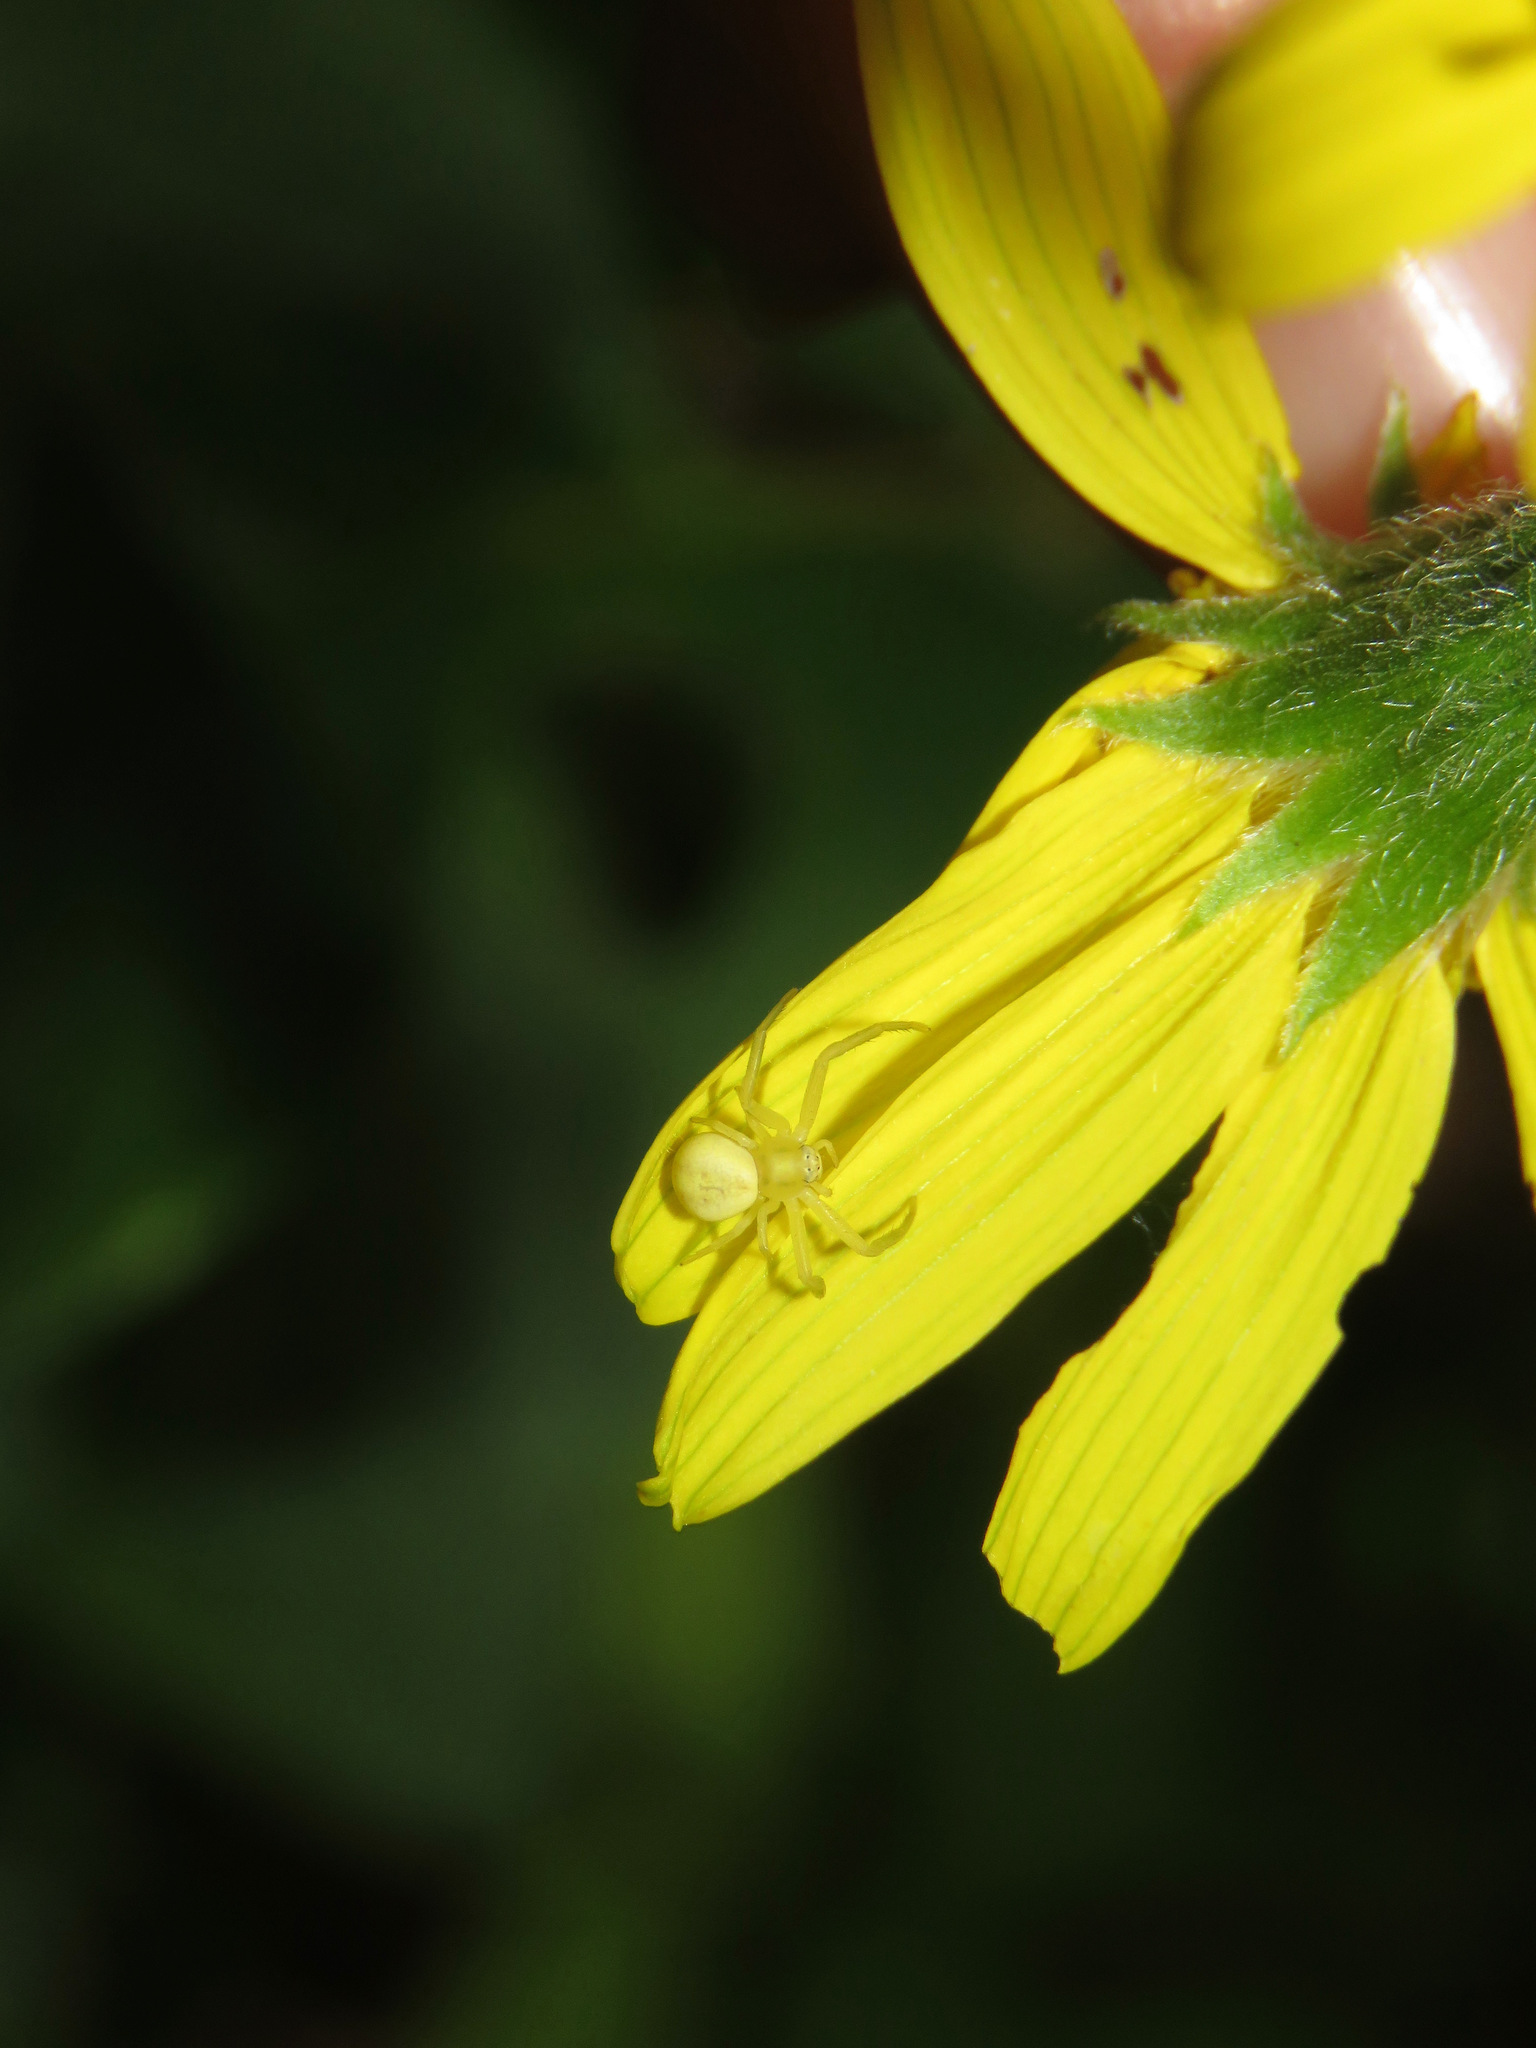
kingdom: Animalia
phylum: Arthropoda
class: Arachnida
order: Araneae
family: Thomisidae
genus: Misumena
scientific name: Misumena vatia
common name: Goldenrod crab spider
